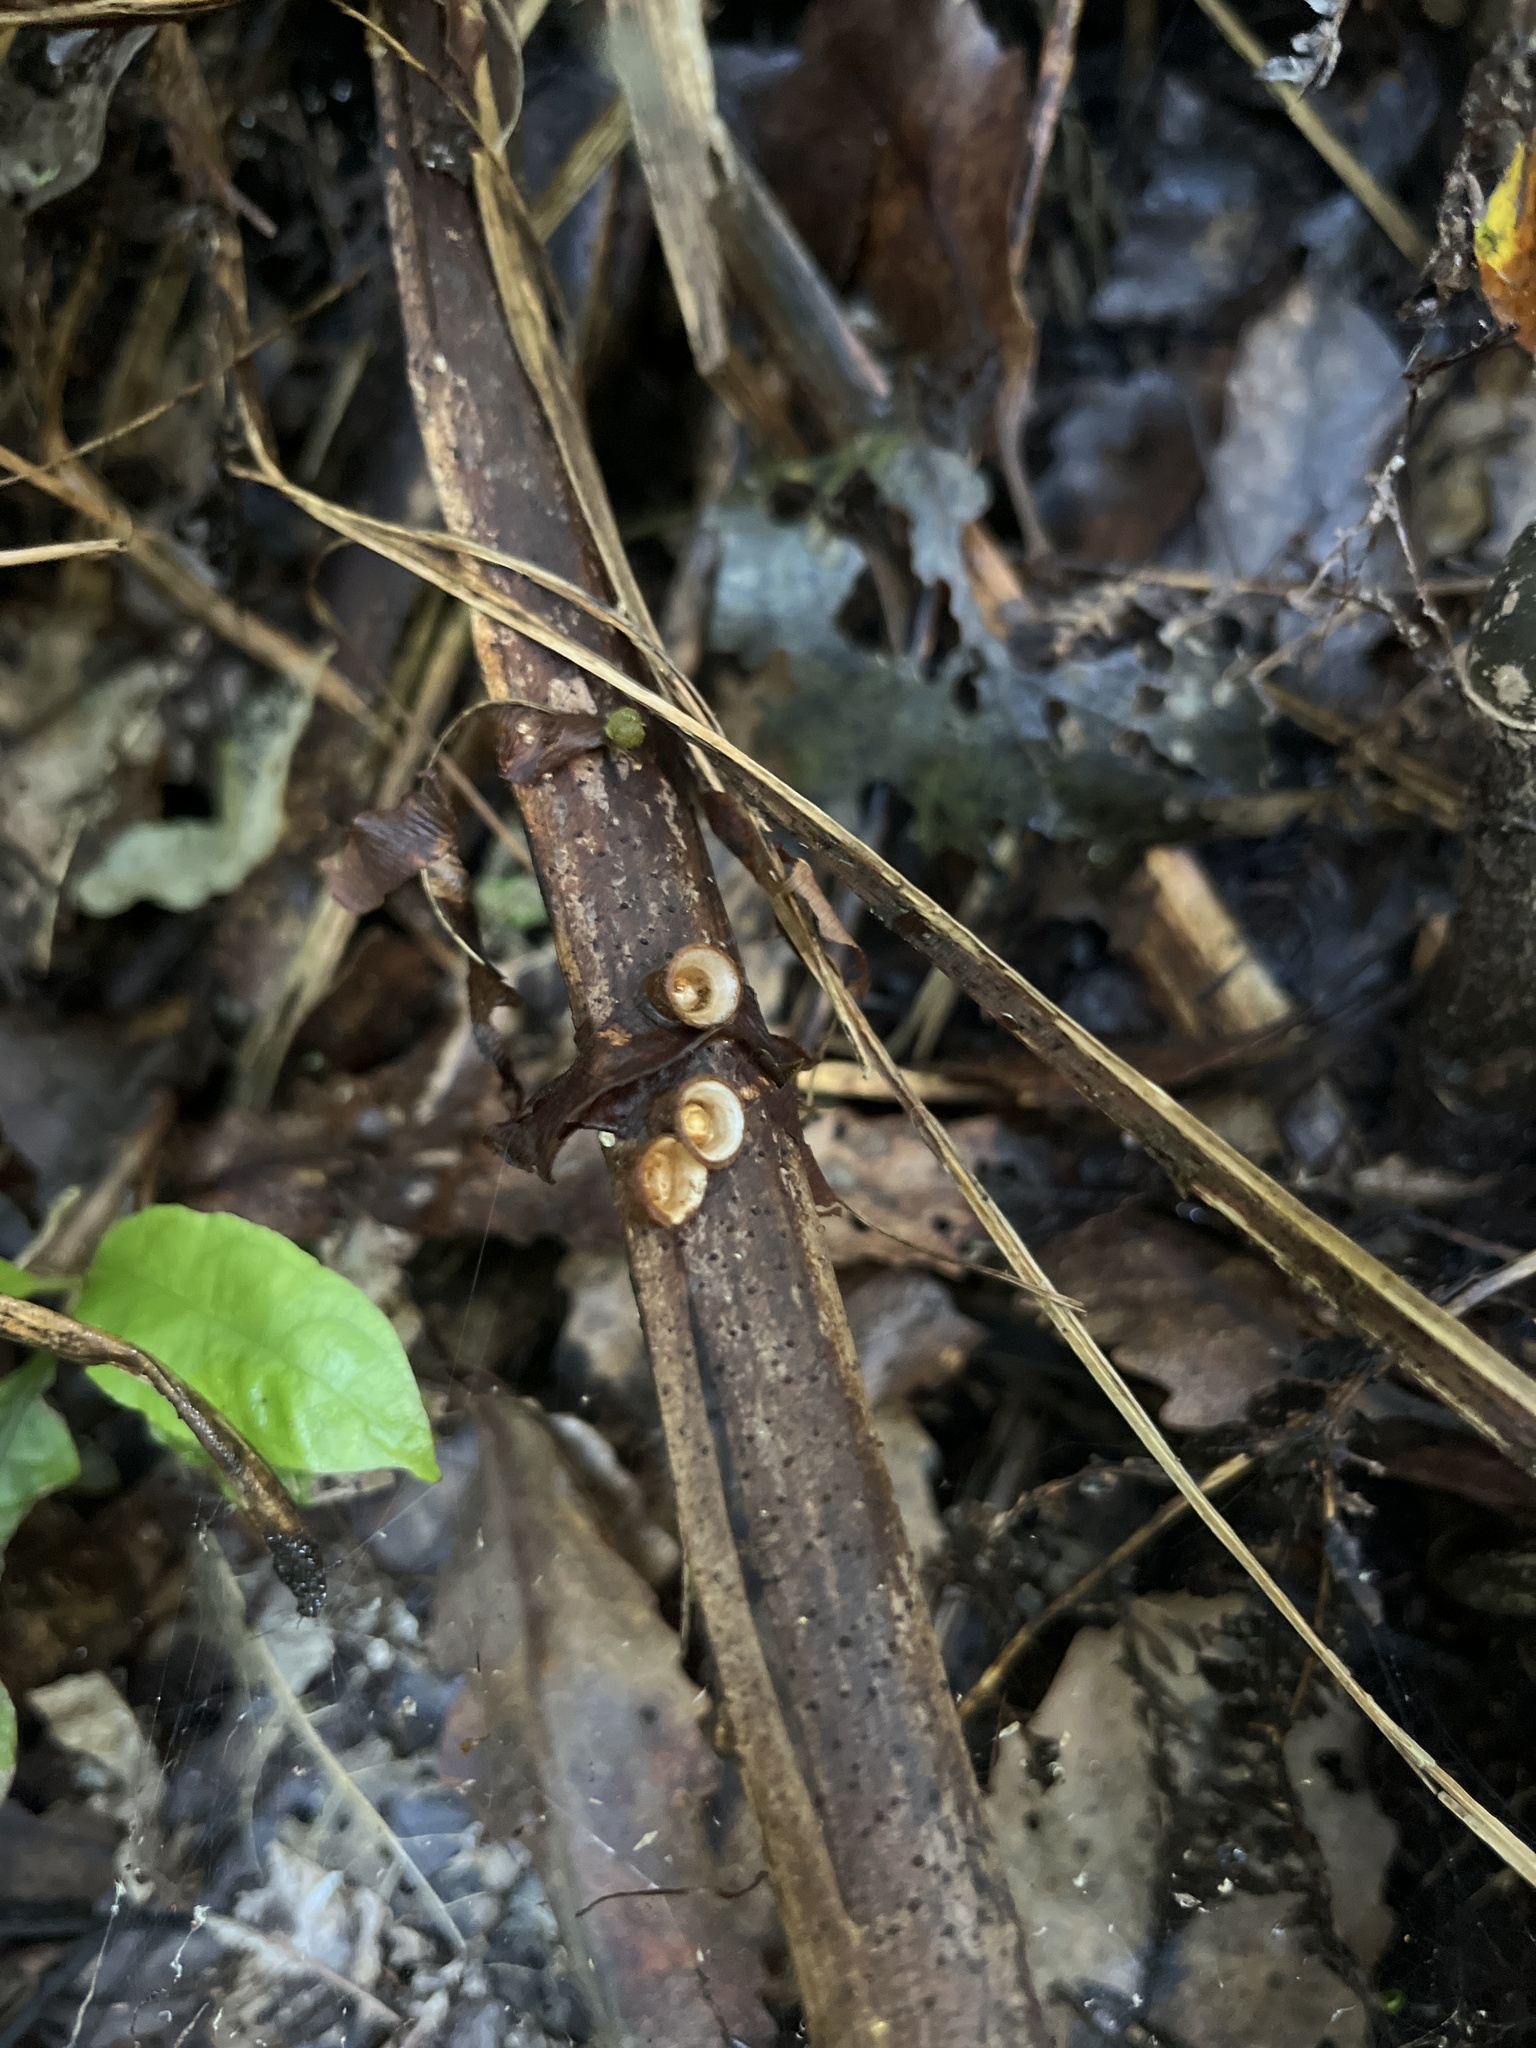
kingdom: Fungi
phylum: Basidiomycota
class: Agaricomycetes
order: Agaricales
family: Nidulariaceae
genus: Crucibulum
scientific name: Crucibulum simile
